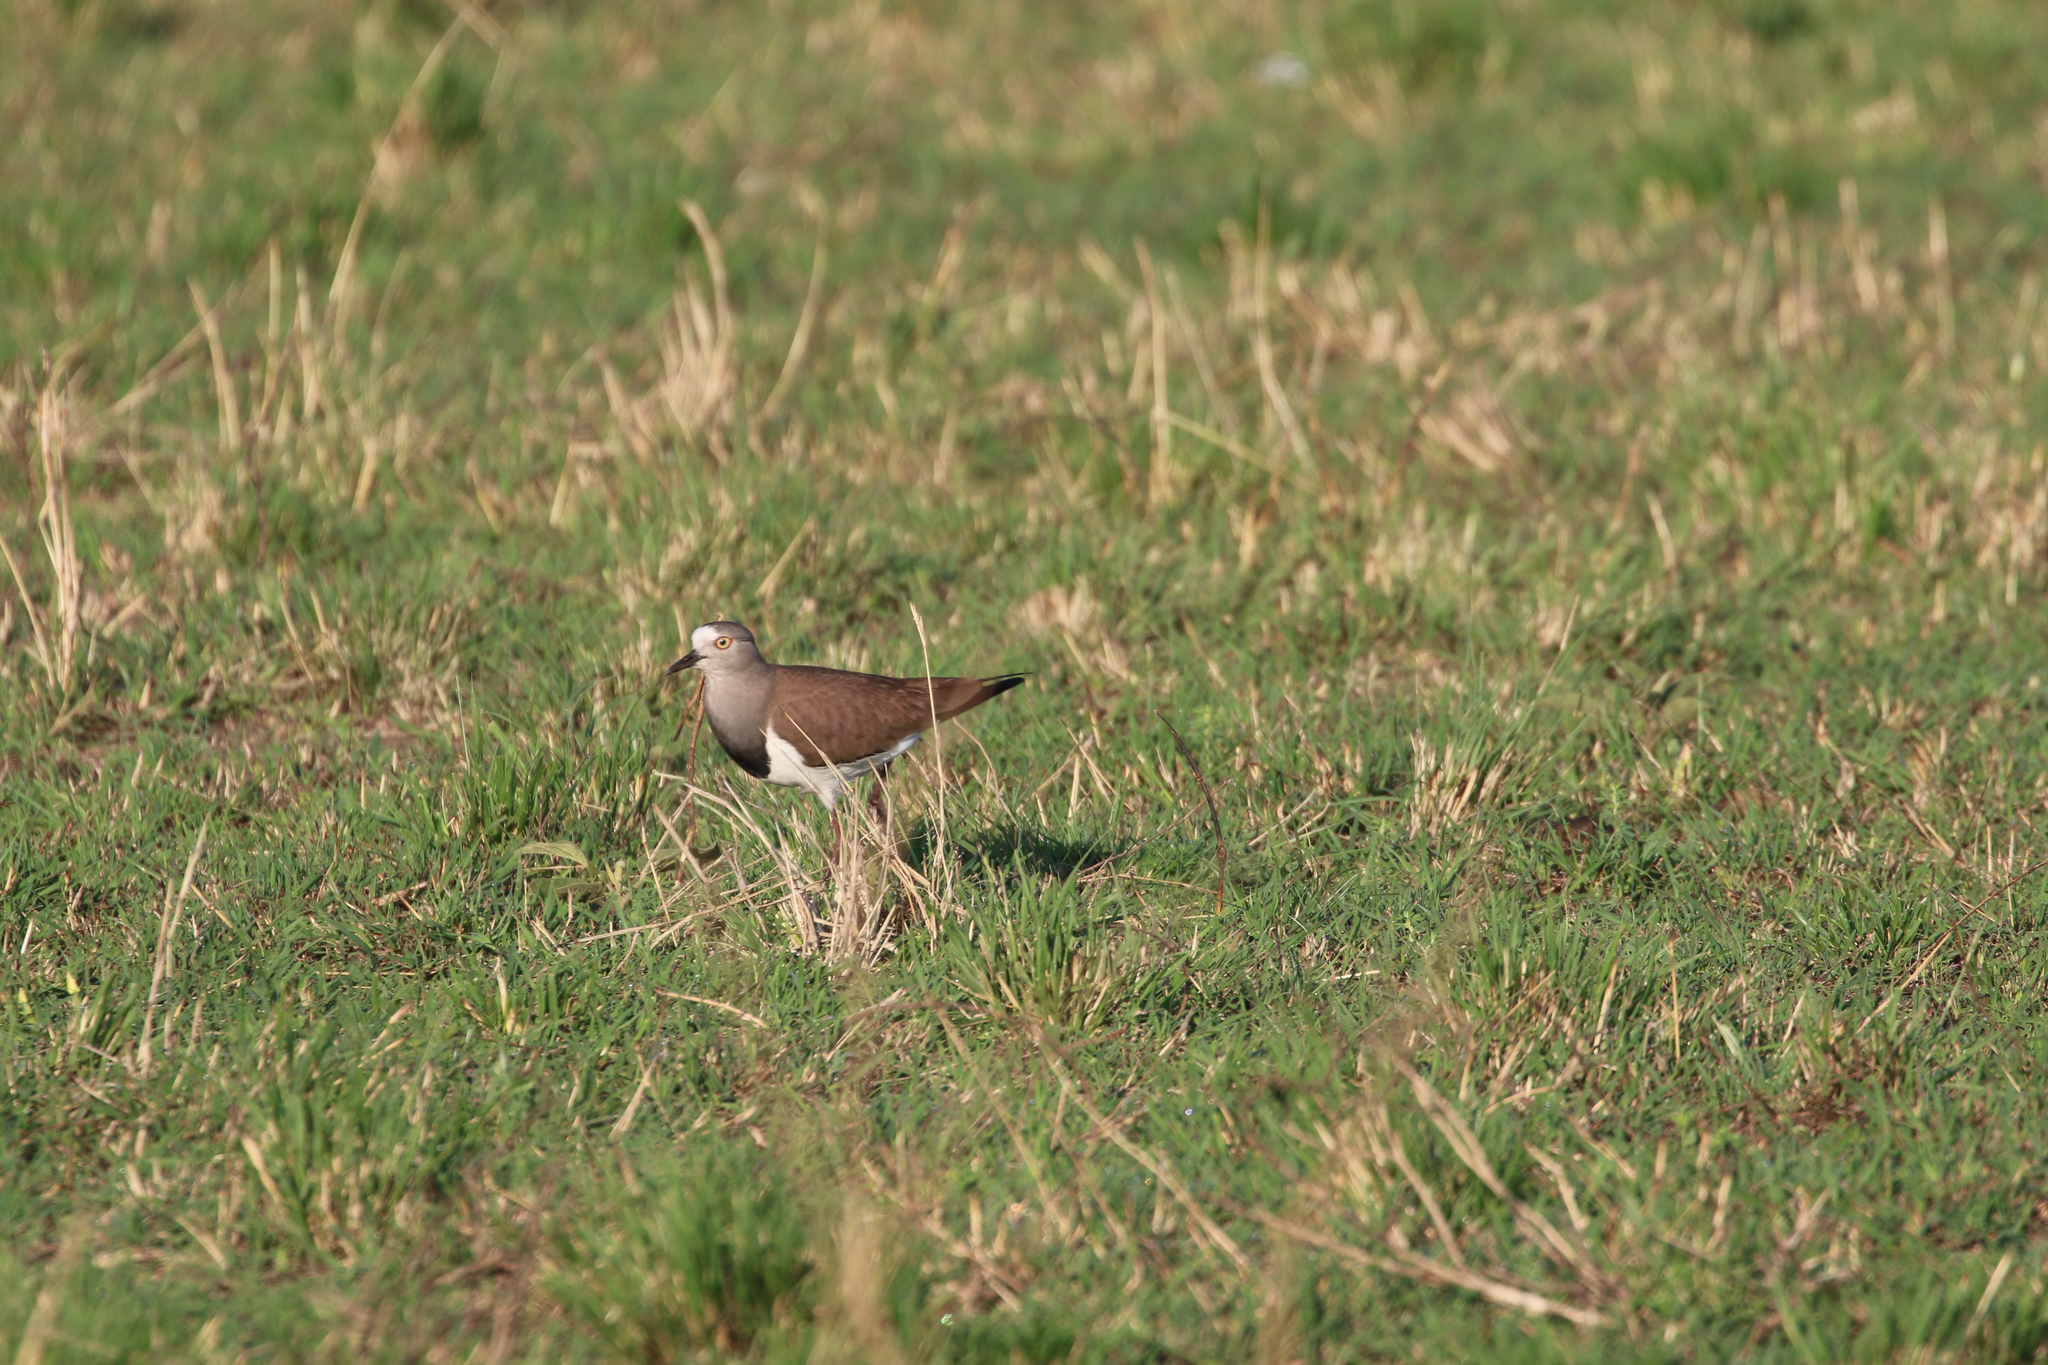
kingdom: Animalia
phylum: Chordata
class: Aves
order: Charadriiformes
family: Charadriidae
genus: Vanellus
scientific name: Vanellus lugubris
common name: Senegal lapwing
